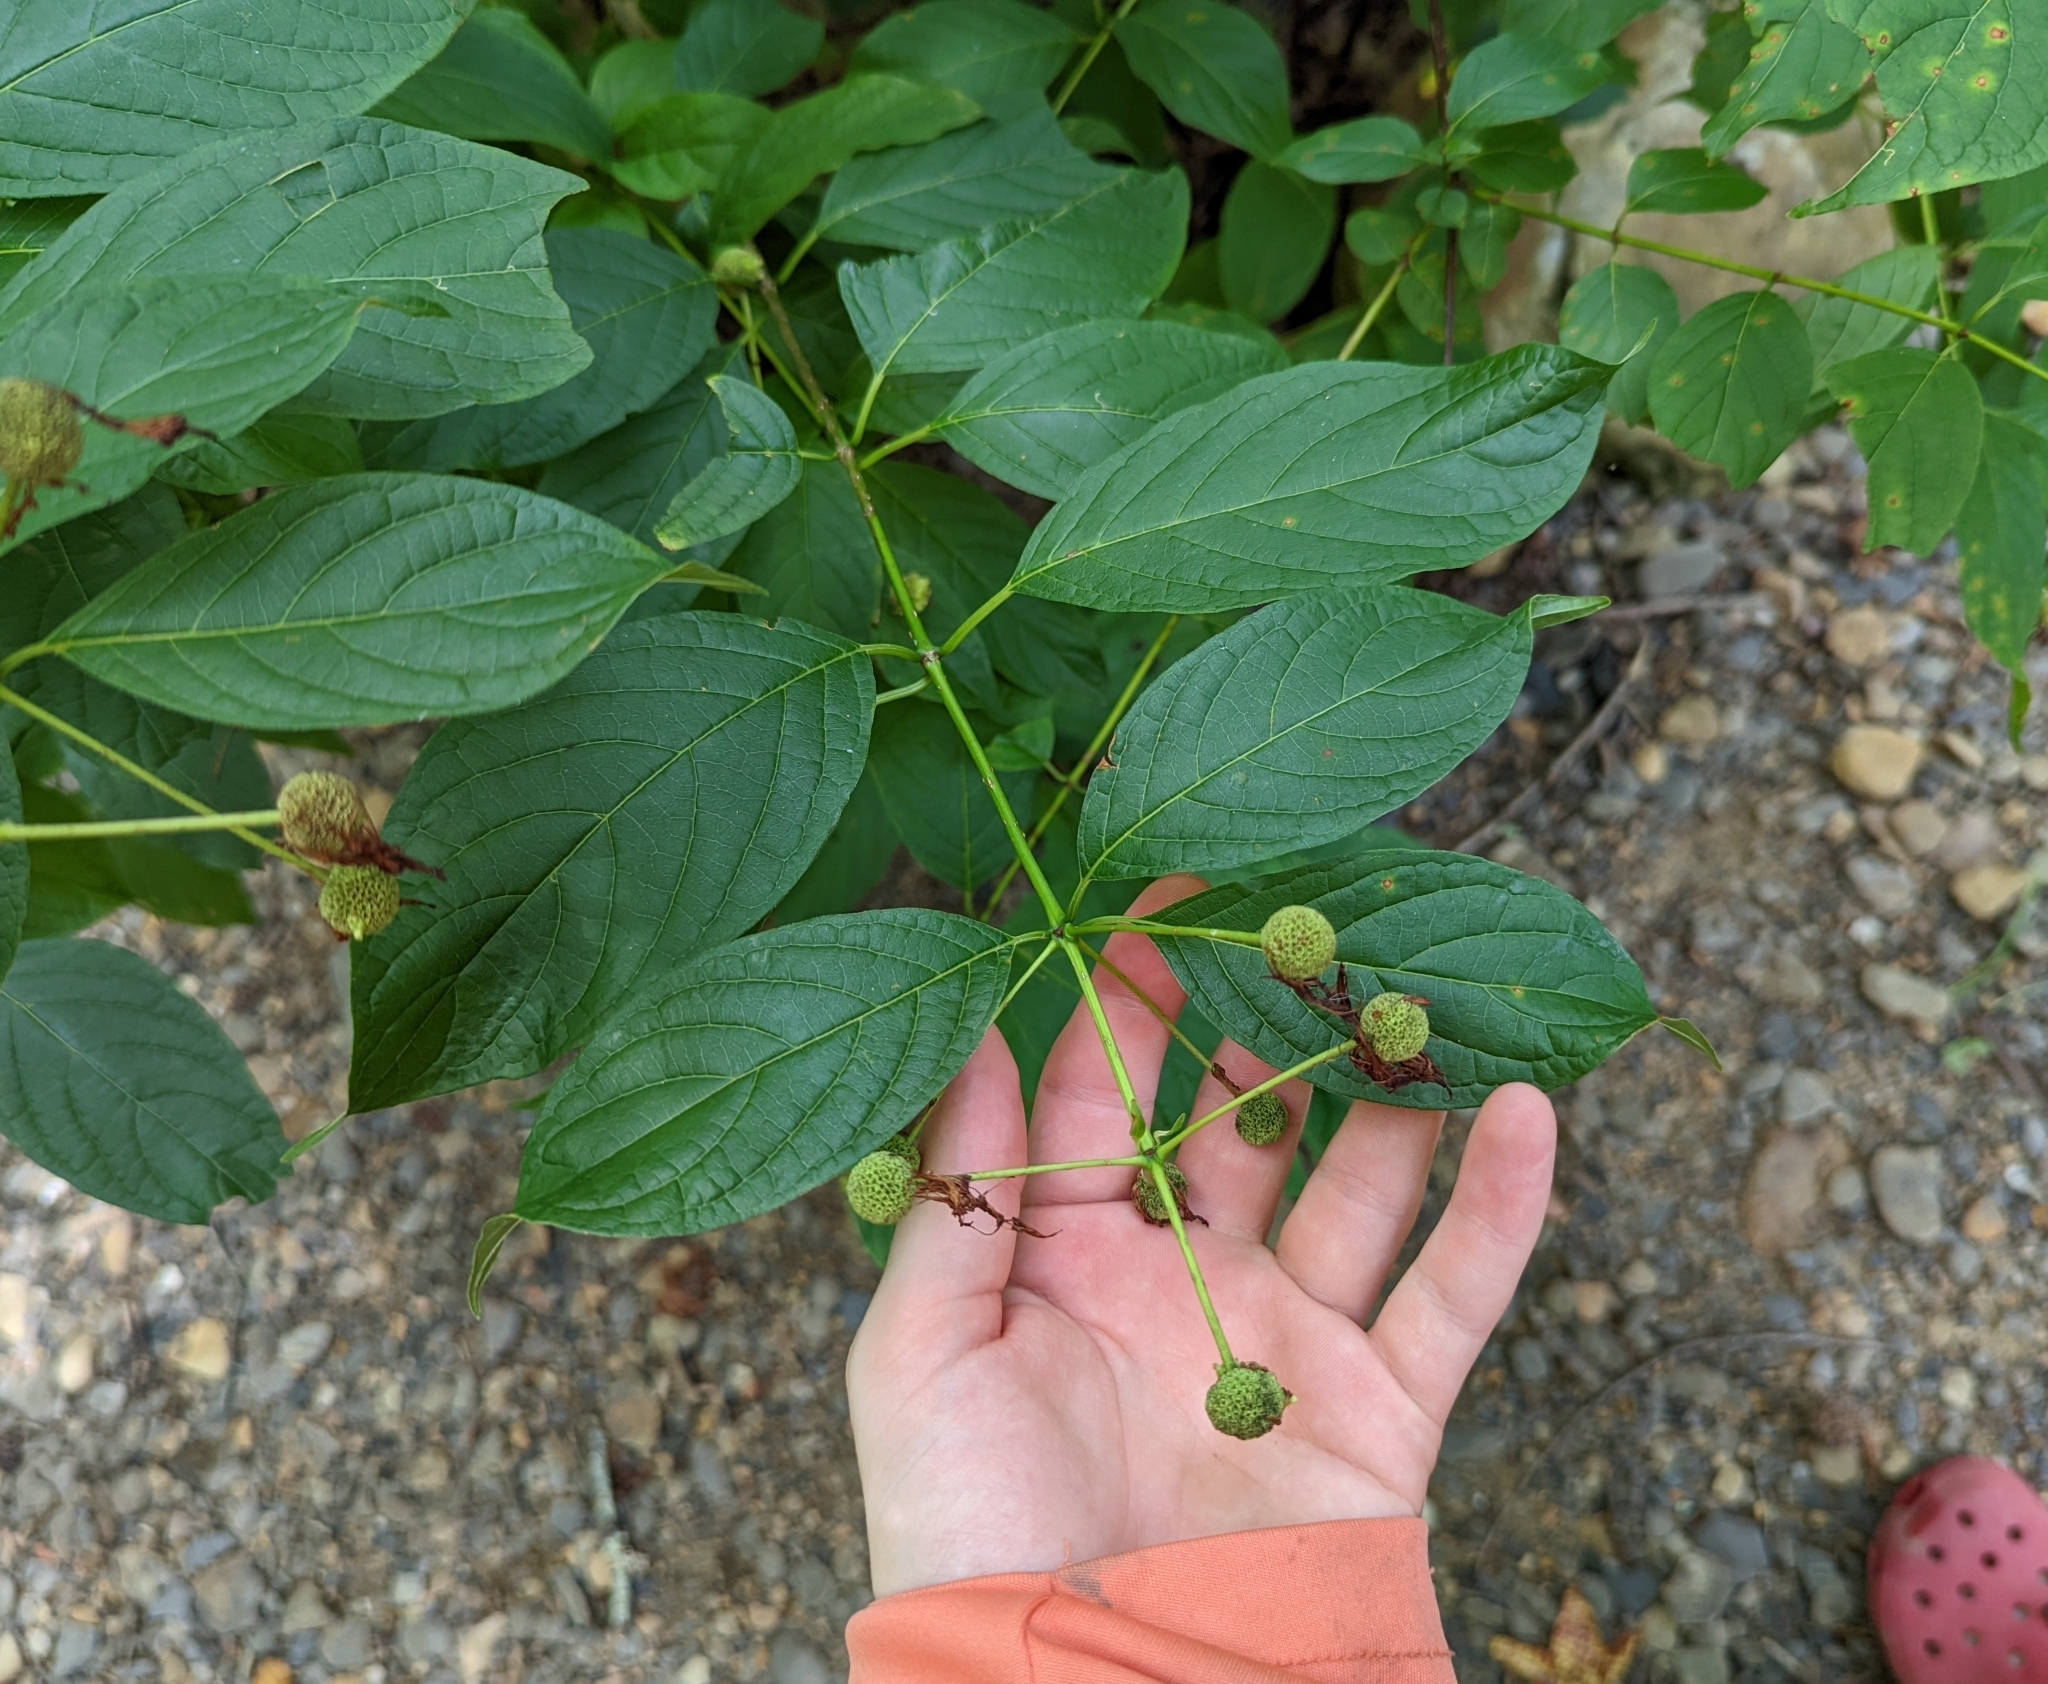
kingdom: Plantae
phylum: Tracheophyta
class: Magnoliopsida
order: Gentianales
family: Rubiaceae
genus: Cephalanthus
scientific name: Cephalanthus occidentalis
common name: Button-willow
